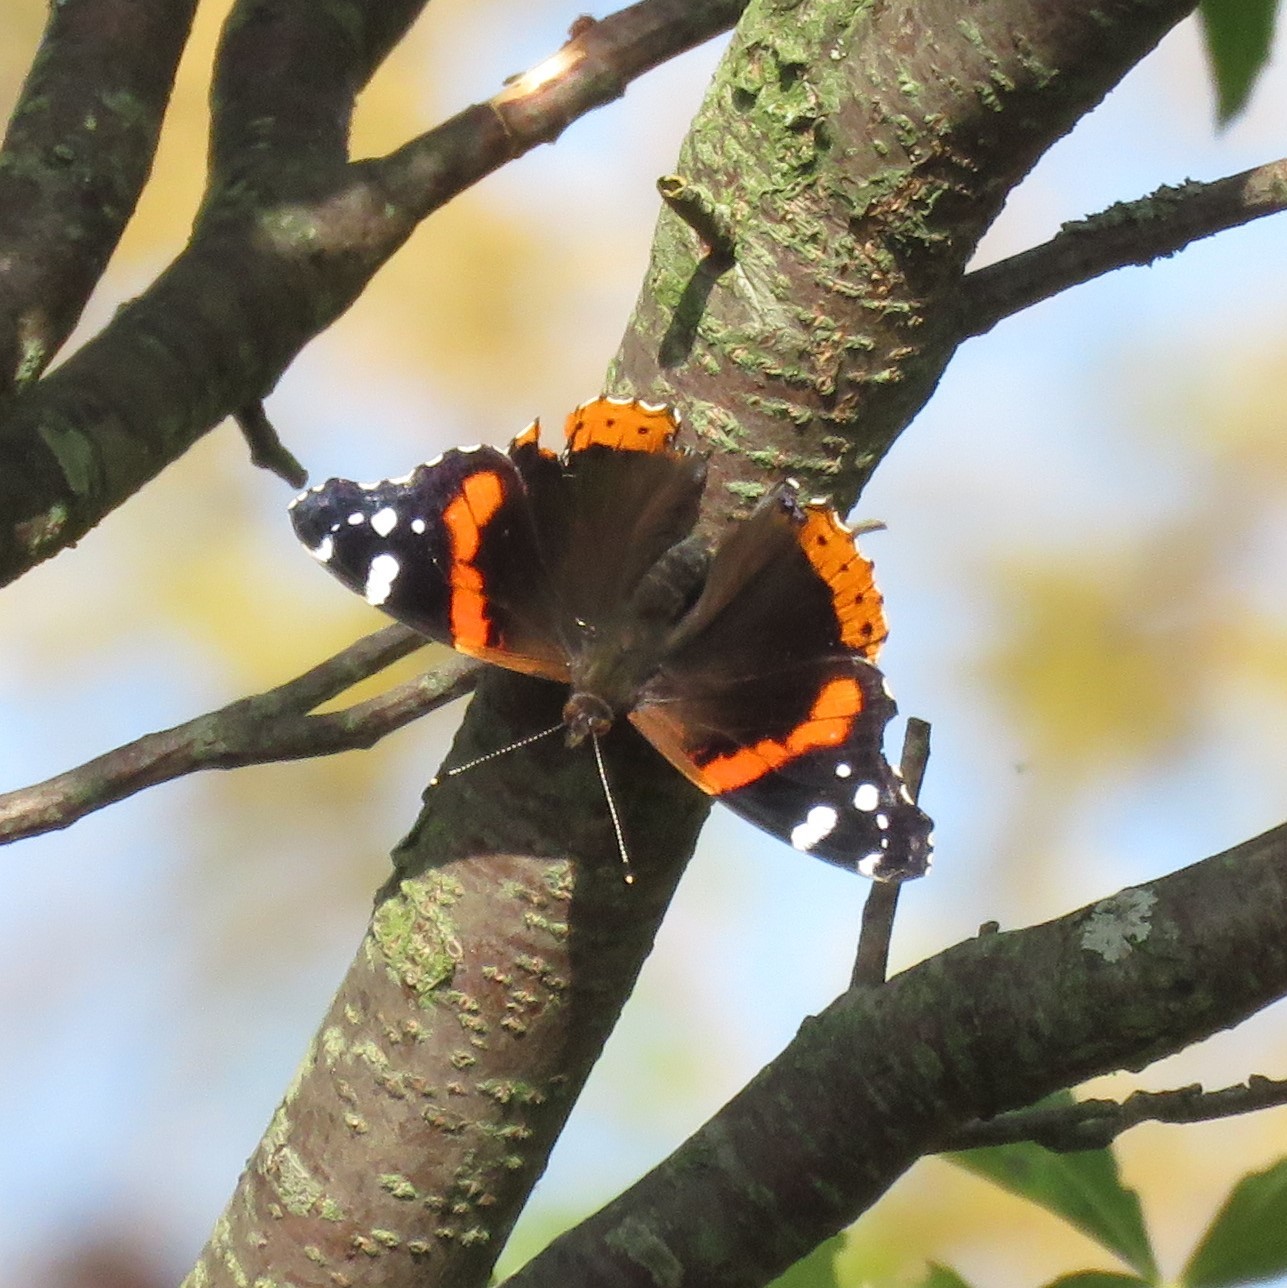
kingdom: Animalia
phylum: Arthropoda
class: Insecta
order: Lepidoptera
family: Nymphalidae
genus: Vanessa
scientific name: Vanessa atalanta
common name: Red admiral
